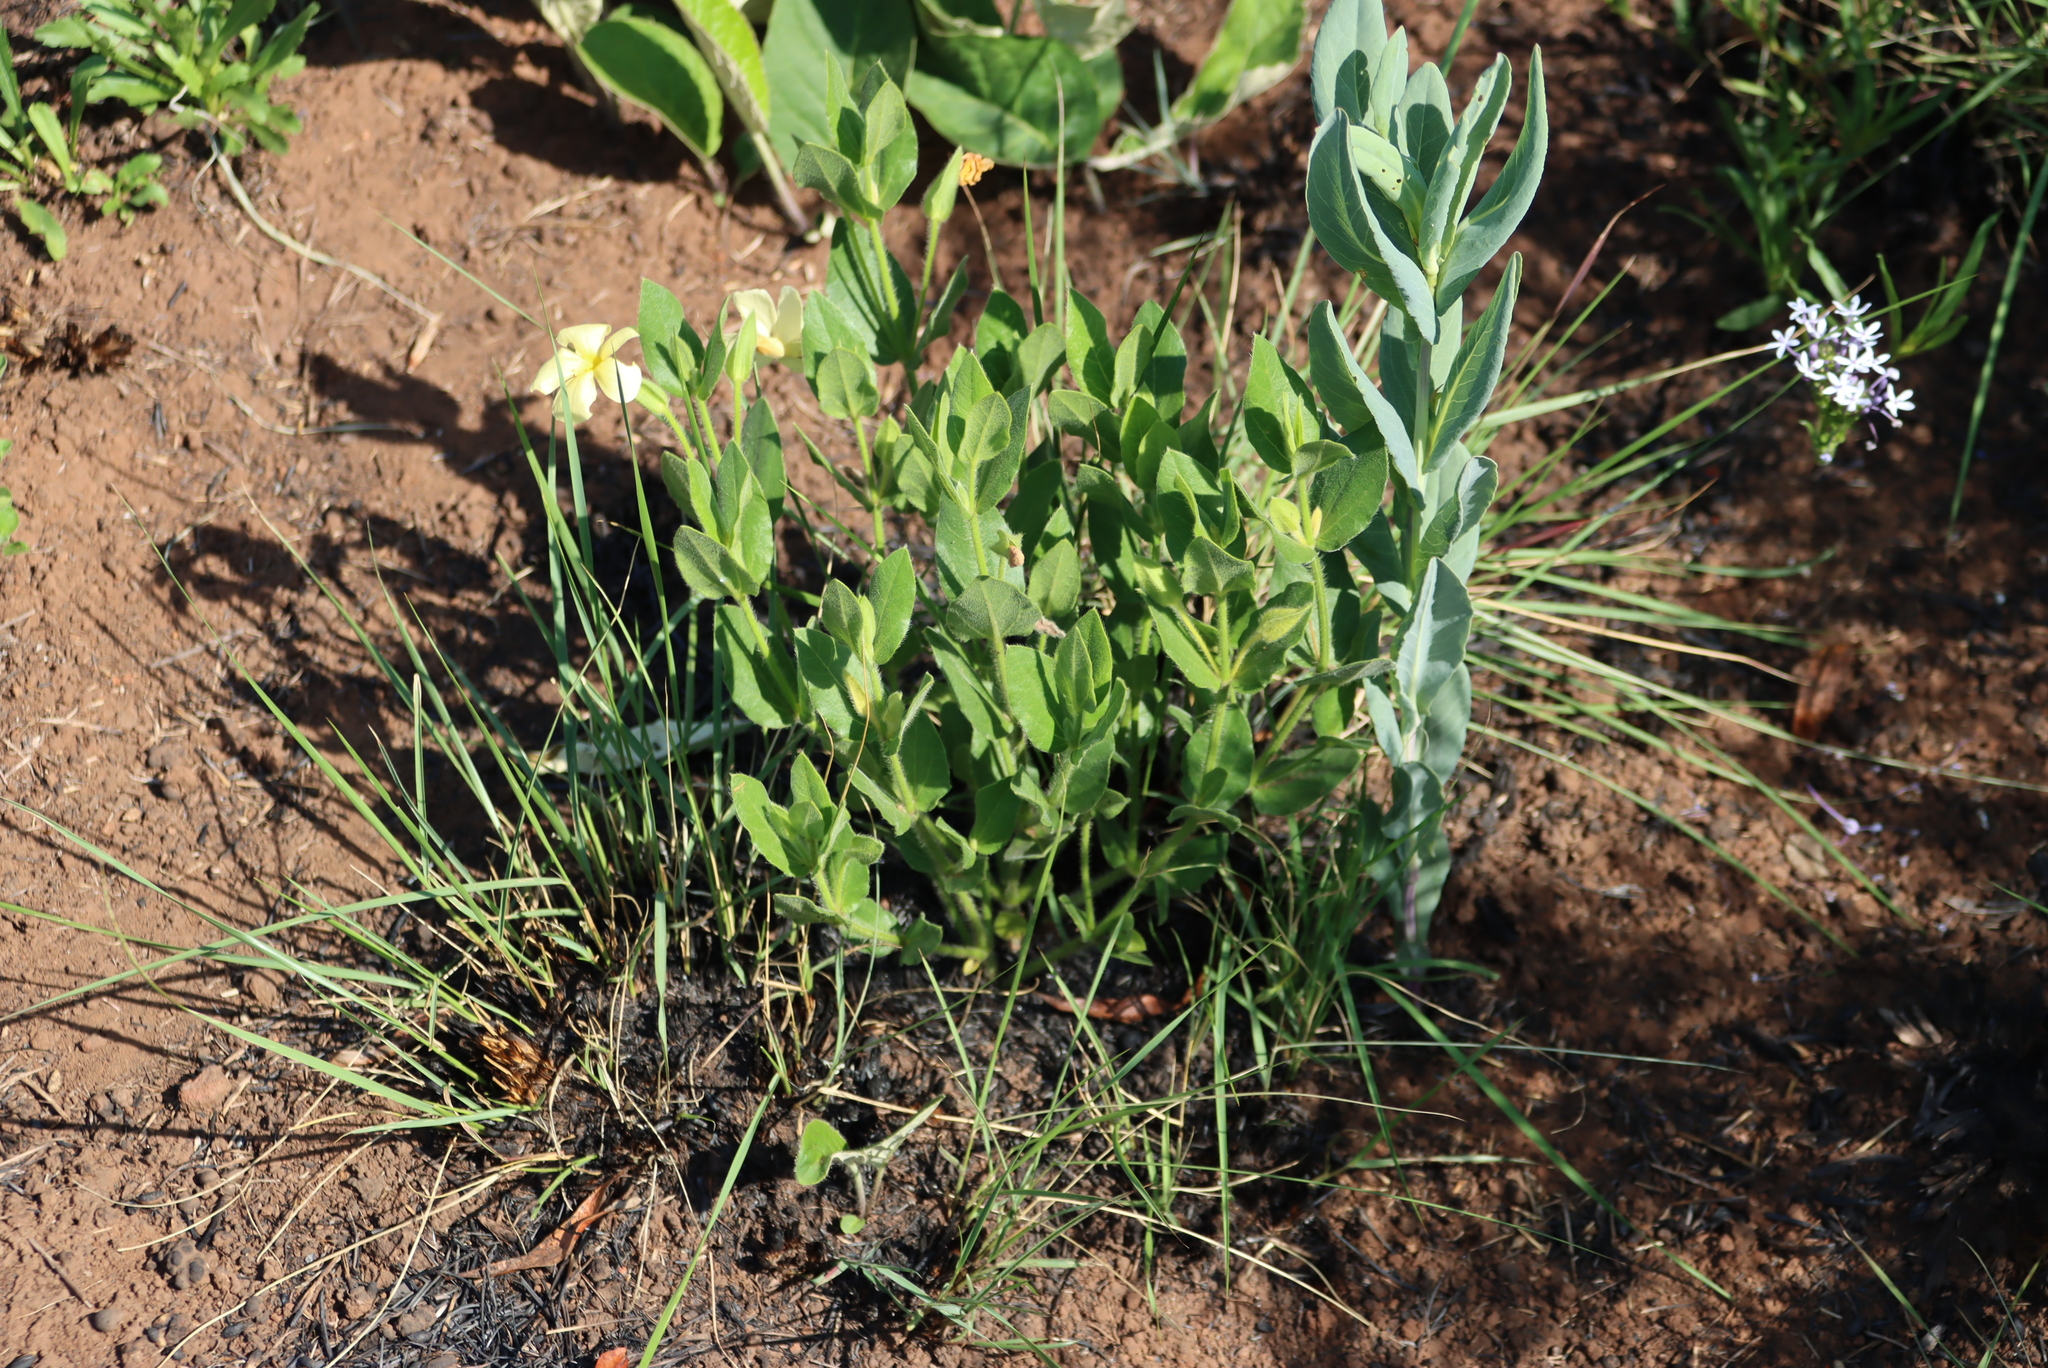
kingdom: Plantae
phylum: Tracheophyta
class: Magnoliopsida
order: Lamiales
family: Acanthaceae
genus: Thunbergia
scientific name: Thunbergia atriplicifolia
